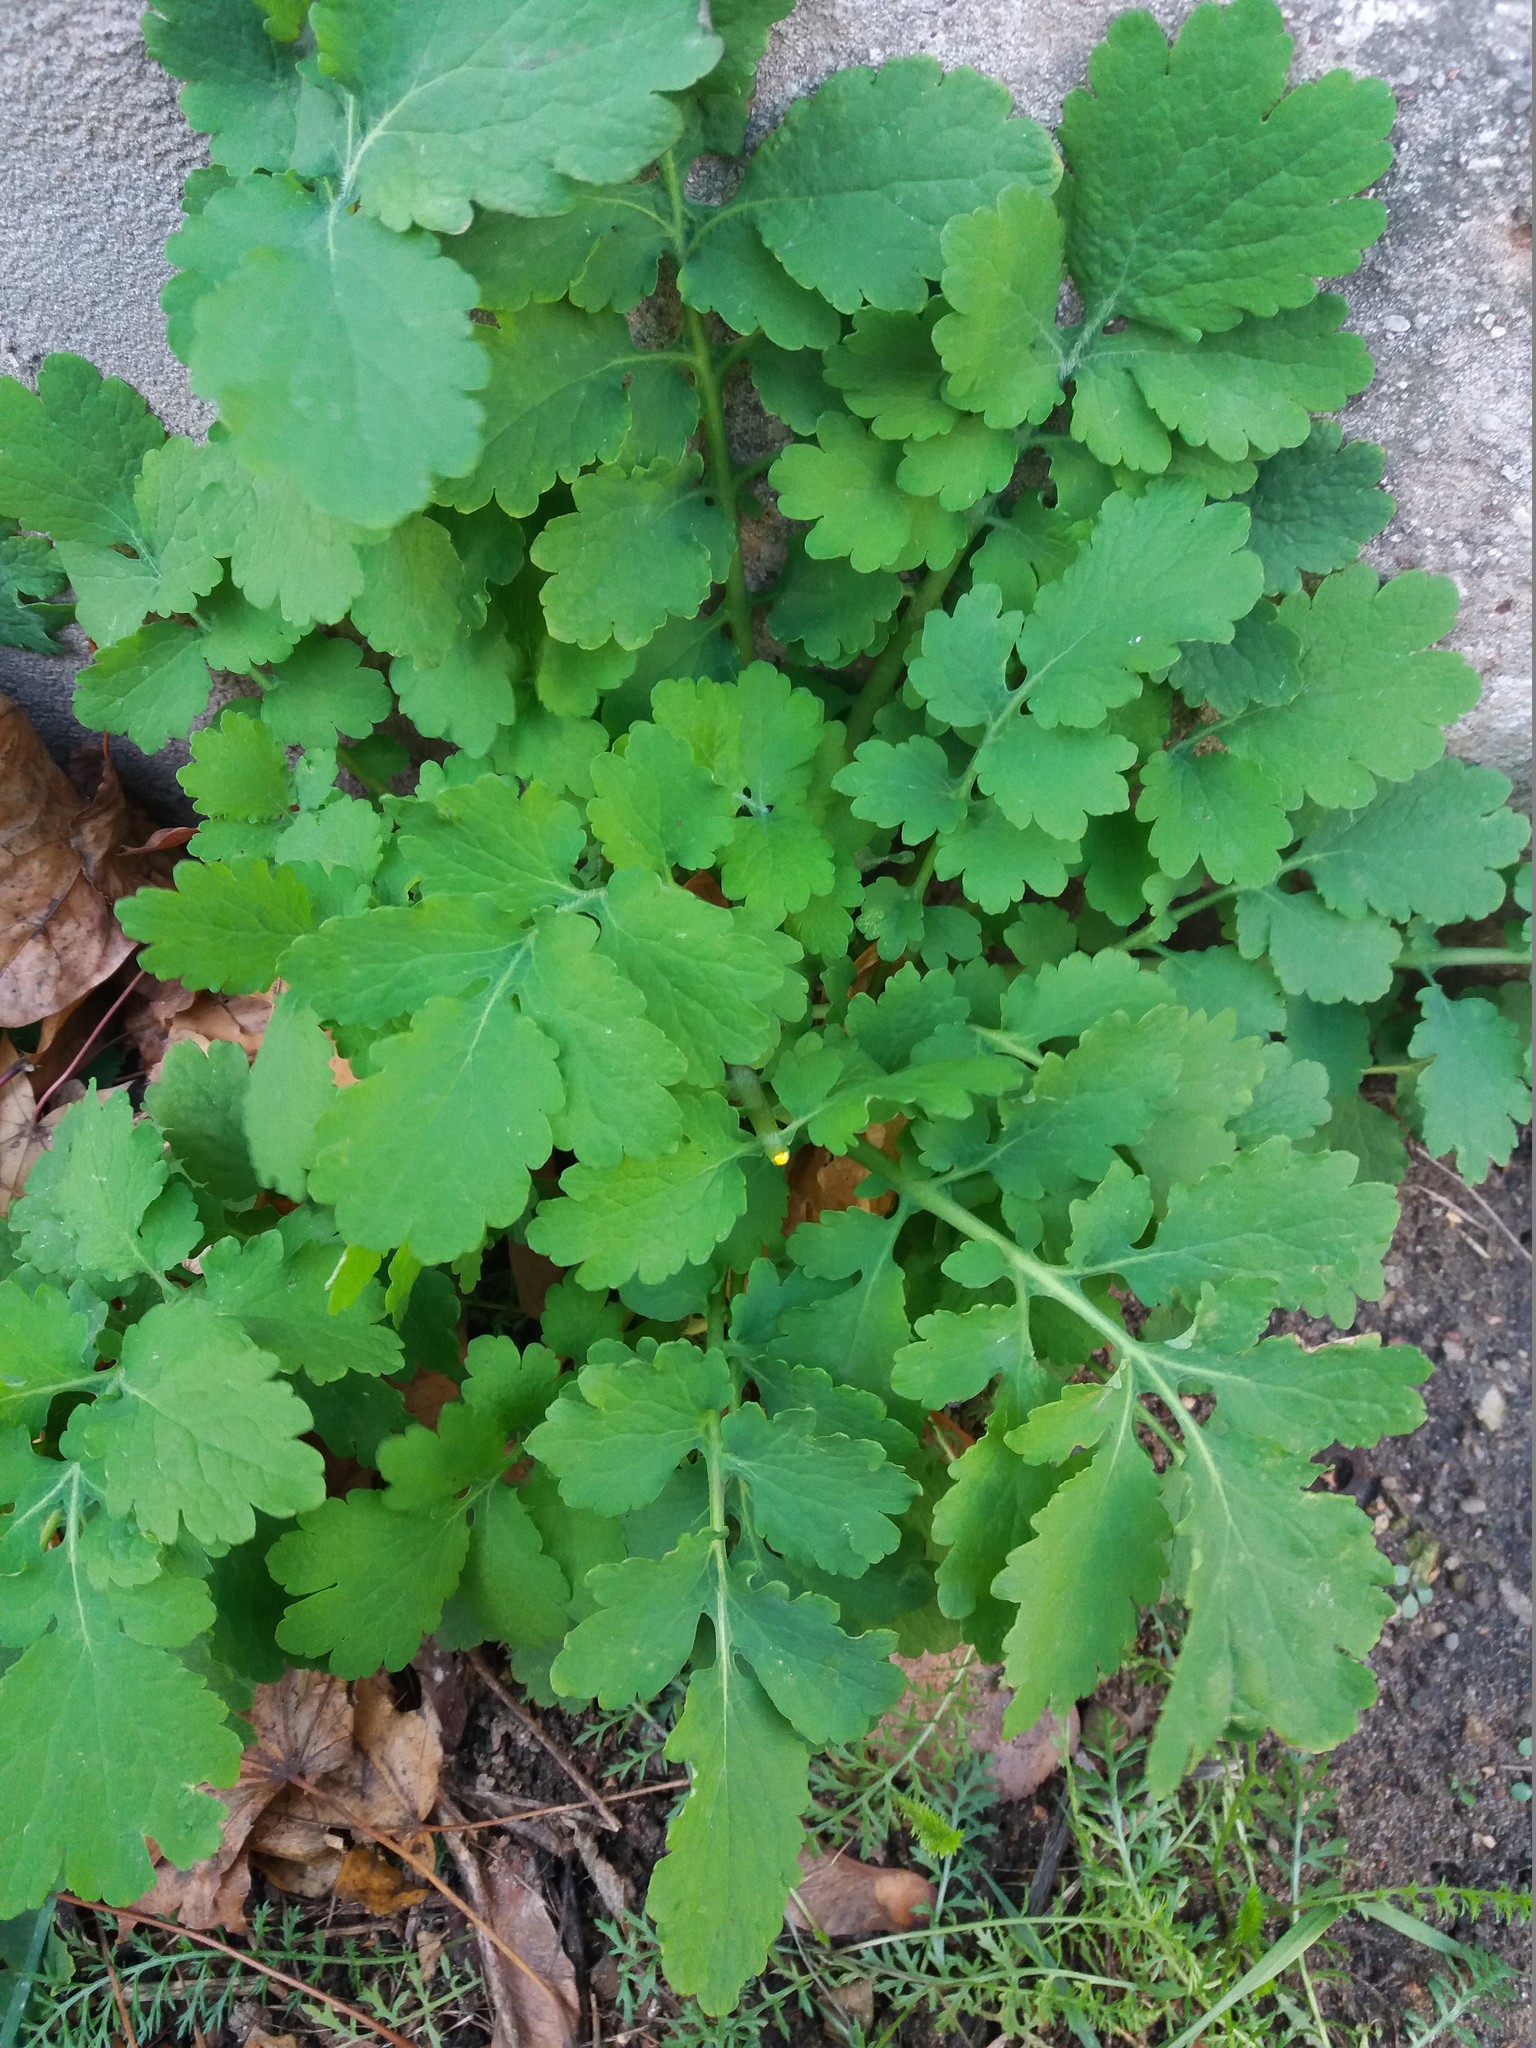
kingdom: Plantae
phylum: Tracheophyta
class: Magnoliopsida
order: Ranunculales
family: Papaveraceae
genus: Chelidonium
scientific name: Chelidonium majus
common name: Greater celandine
